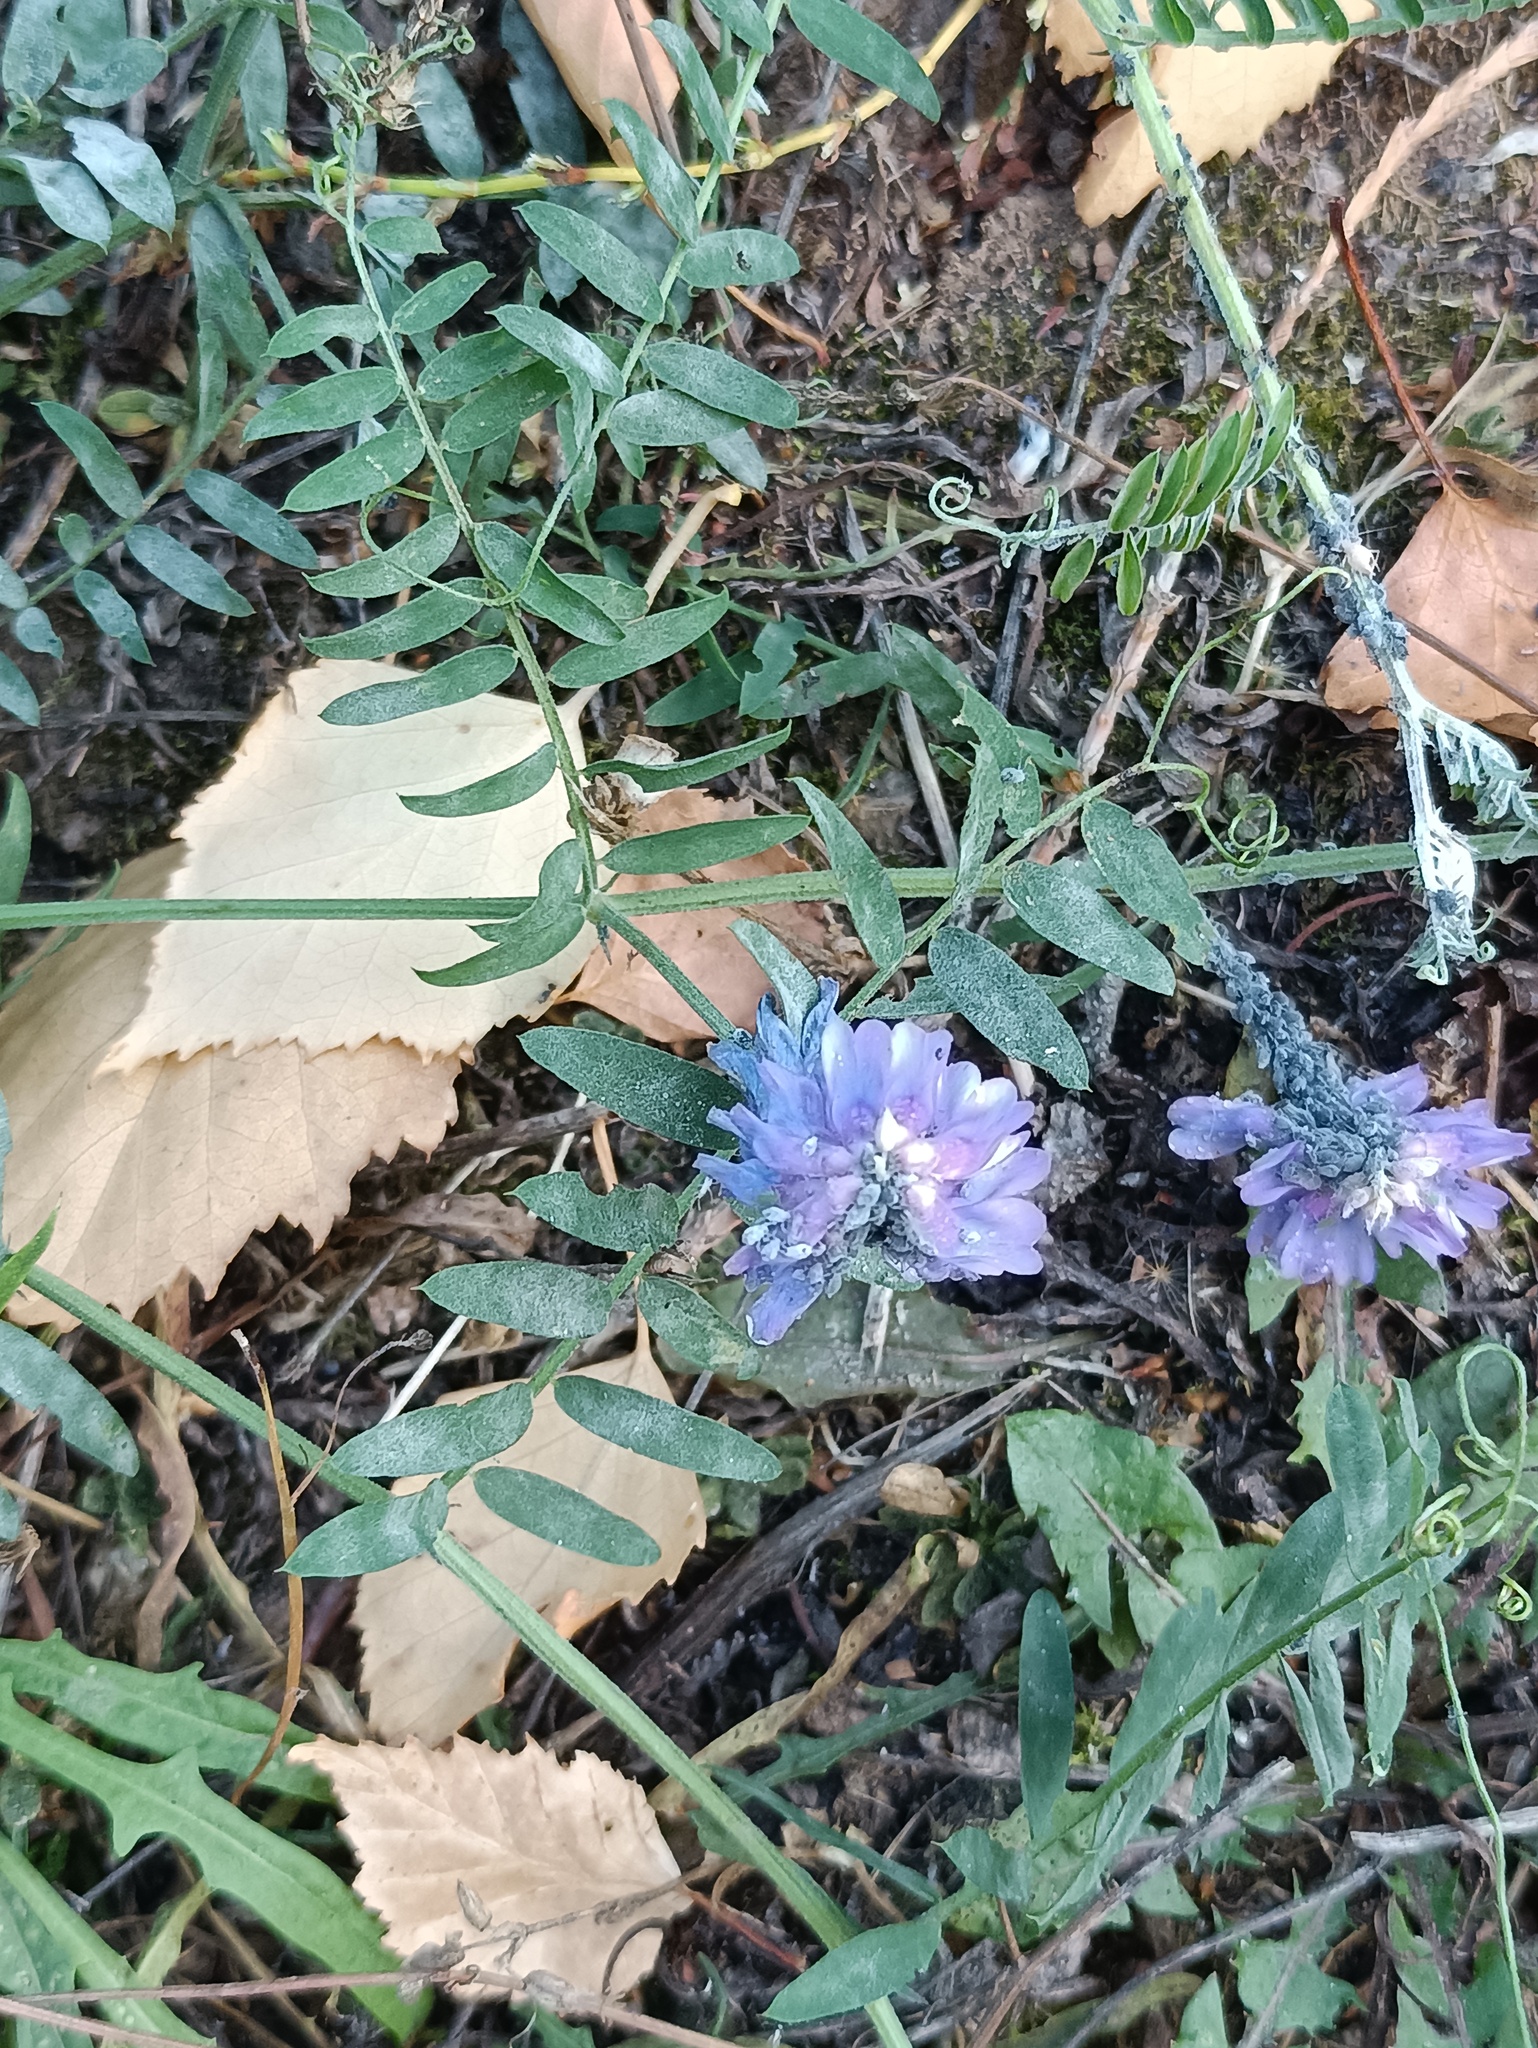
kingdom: Plantae
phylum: Tracheophyta
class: Magnoliopsida
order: Fabales
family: Fabaceae
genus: Vicia
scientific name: Vicia cracca
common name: Bird vetch
